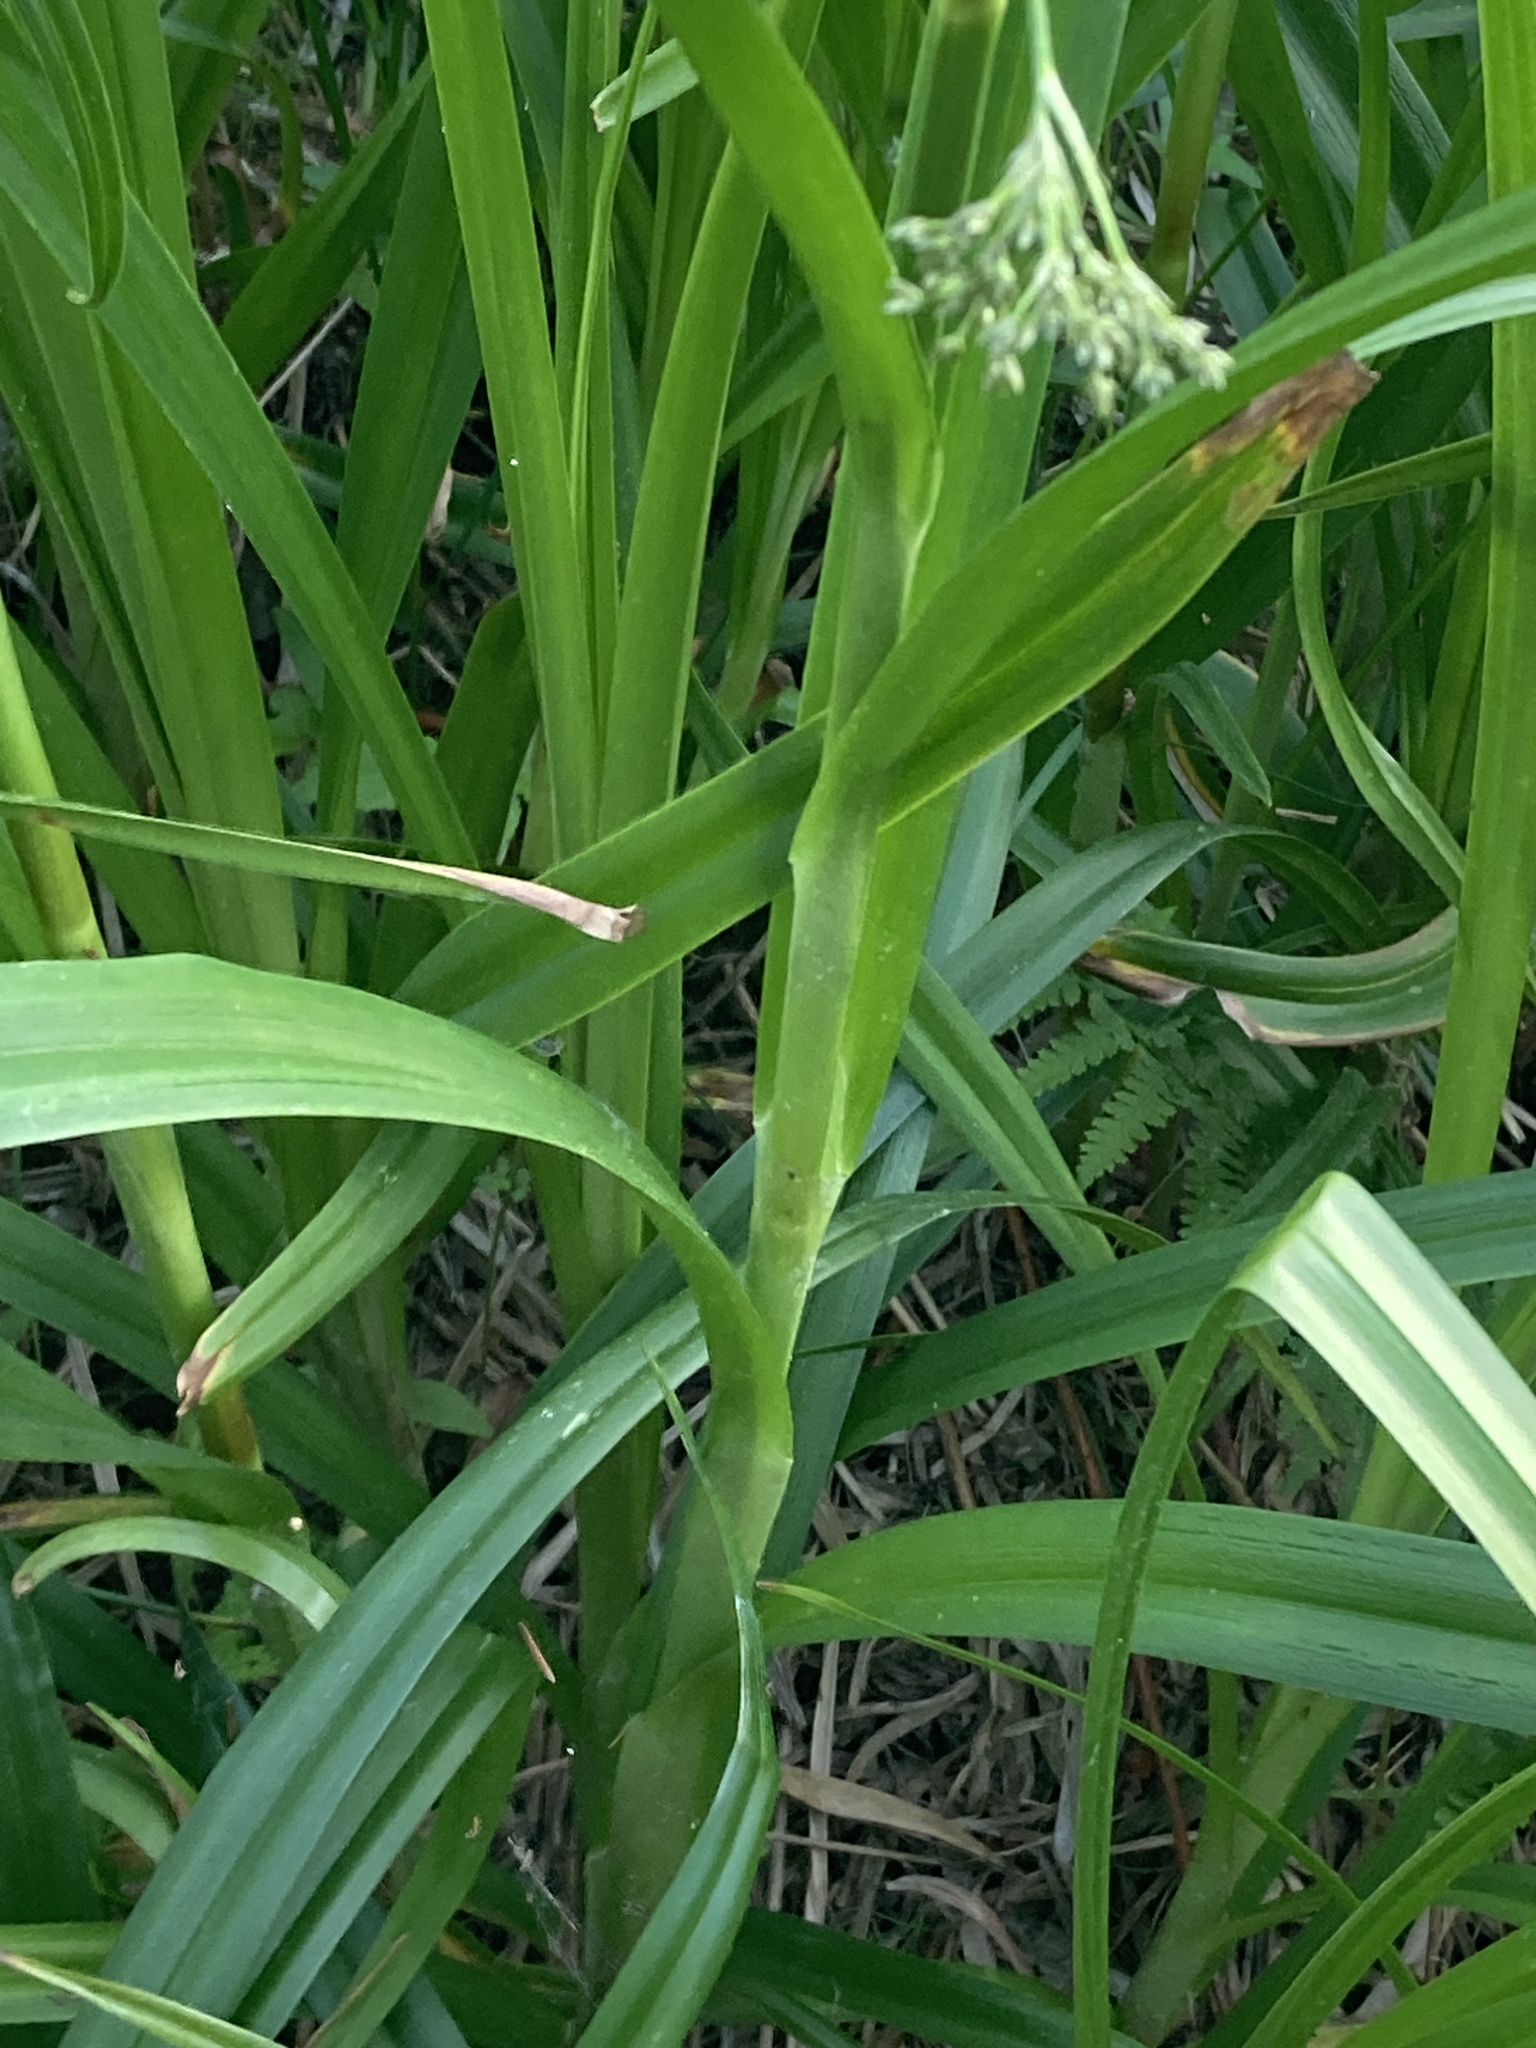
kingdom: Plantae
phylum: Tracheophyta
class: Liliopsida
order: Poales
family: Cyperaceae
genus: Scirpus
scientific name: Scirpus sylvaticus
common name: Wood club-rush
